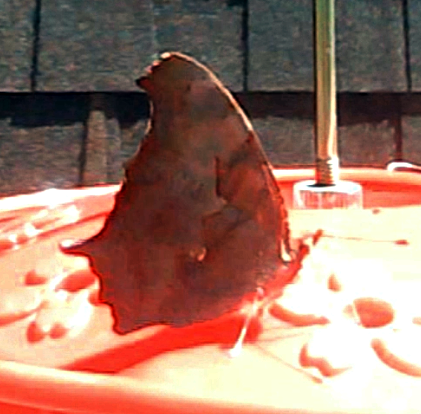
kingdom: Animalia
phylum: Arthropoda
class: Insecta
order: Lepidoptera
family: Nymphalidae
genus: Polygonia
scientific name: Polygonia interrogationis
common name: Question mark
